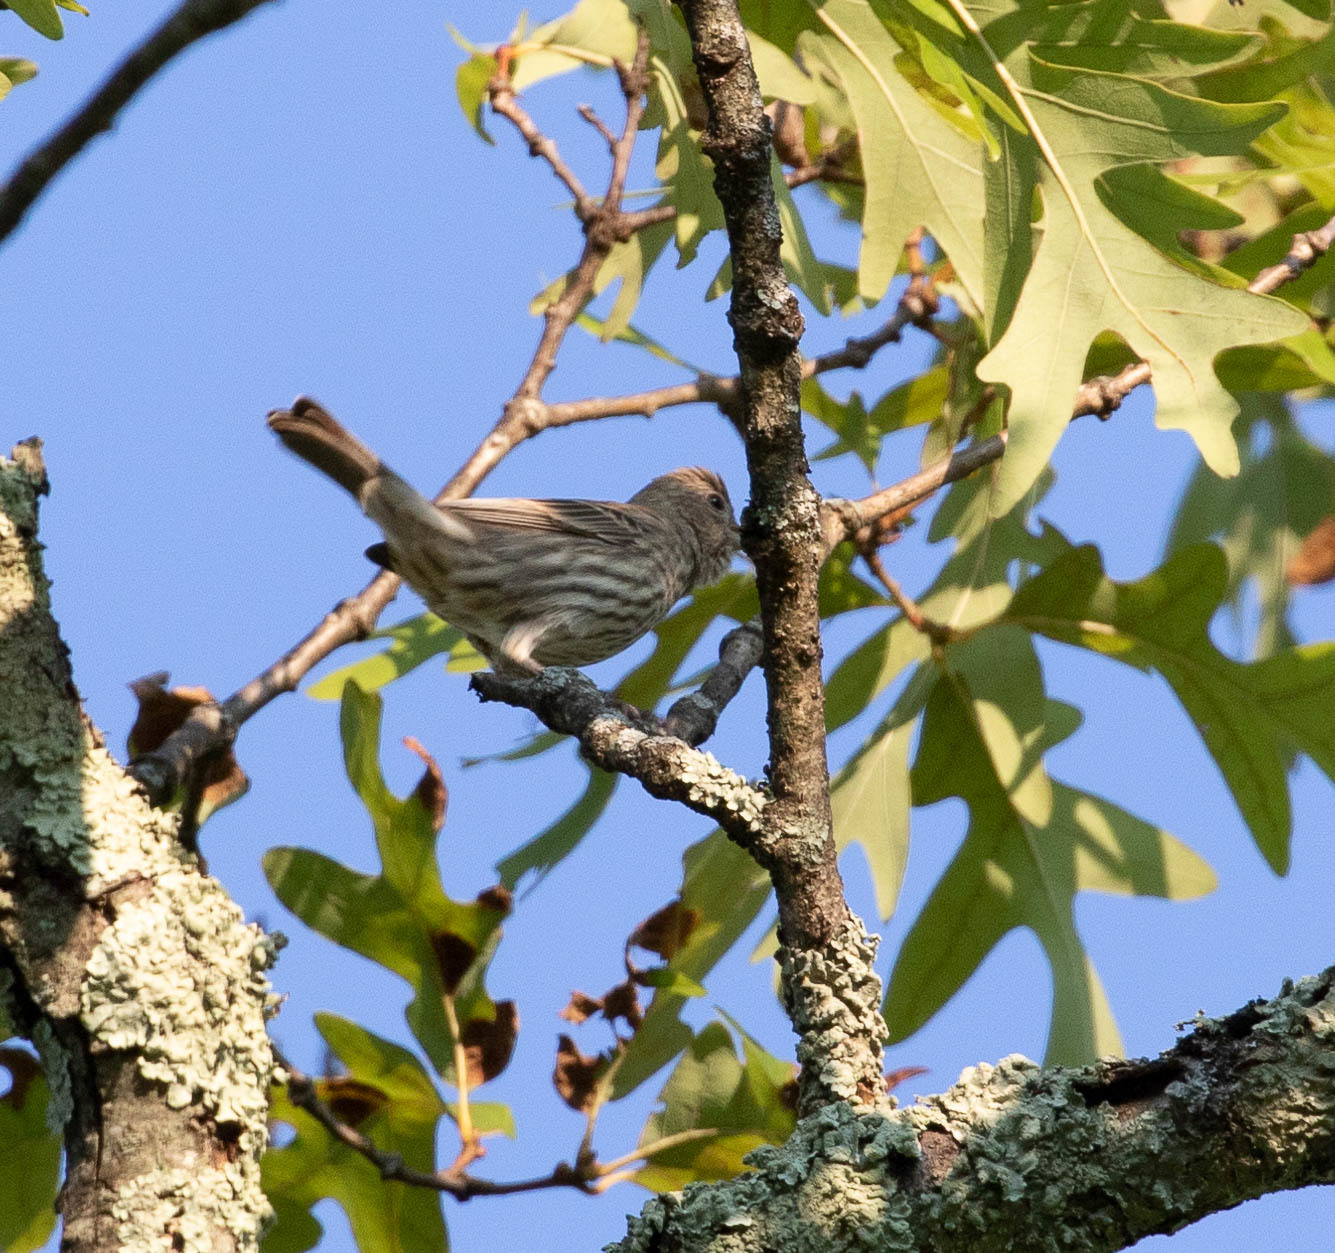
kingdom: Animalia
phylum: Chordata
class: Aves
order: Passeriformes
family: Fringillidae
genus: Haemorhous
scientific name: Haemorhous mexicanus
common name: House finch
